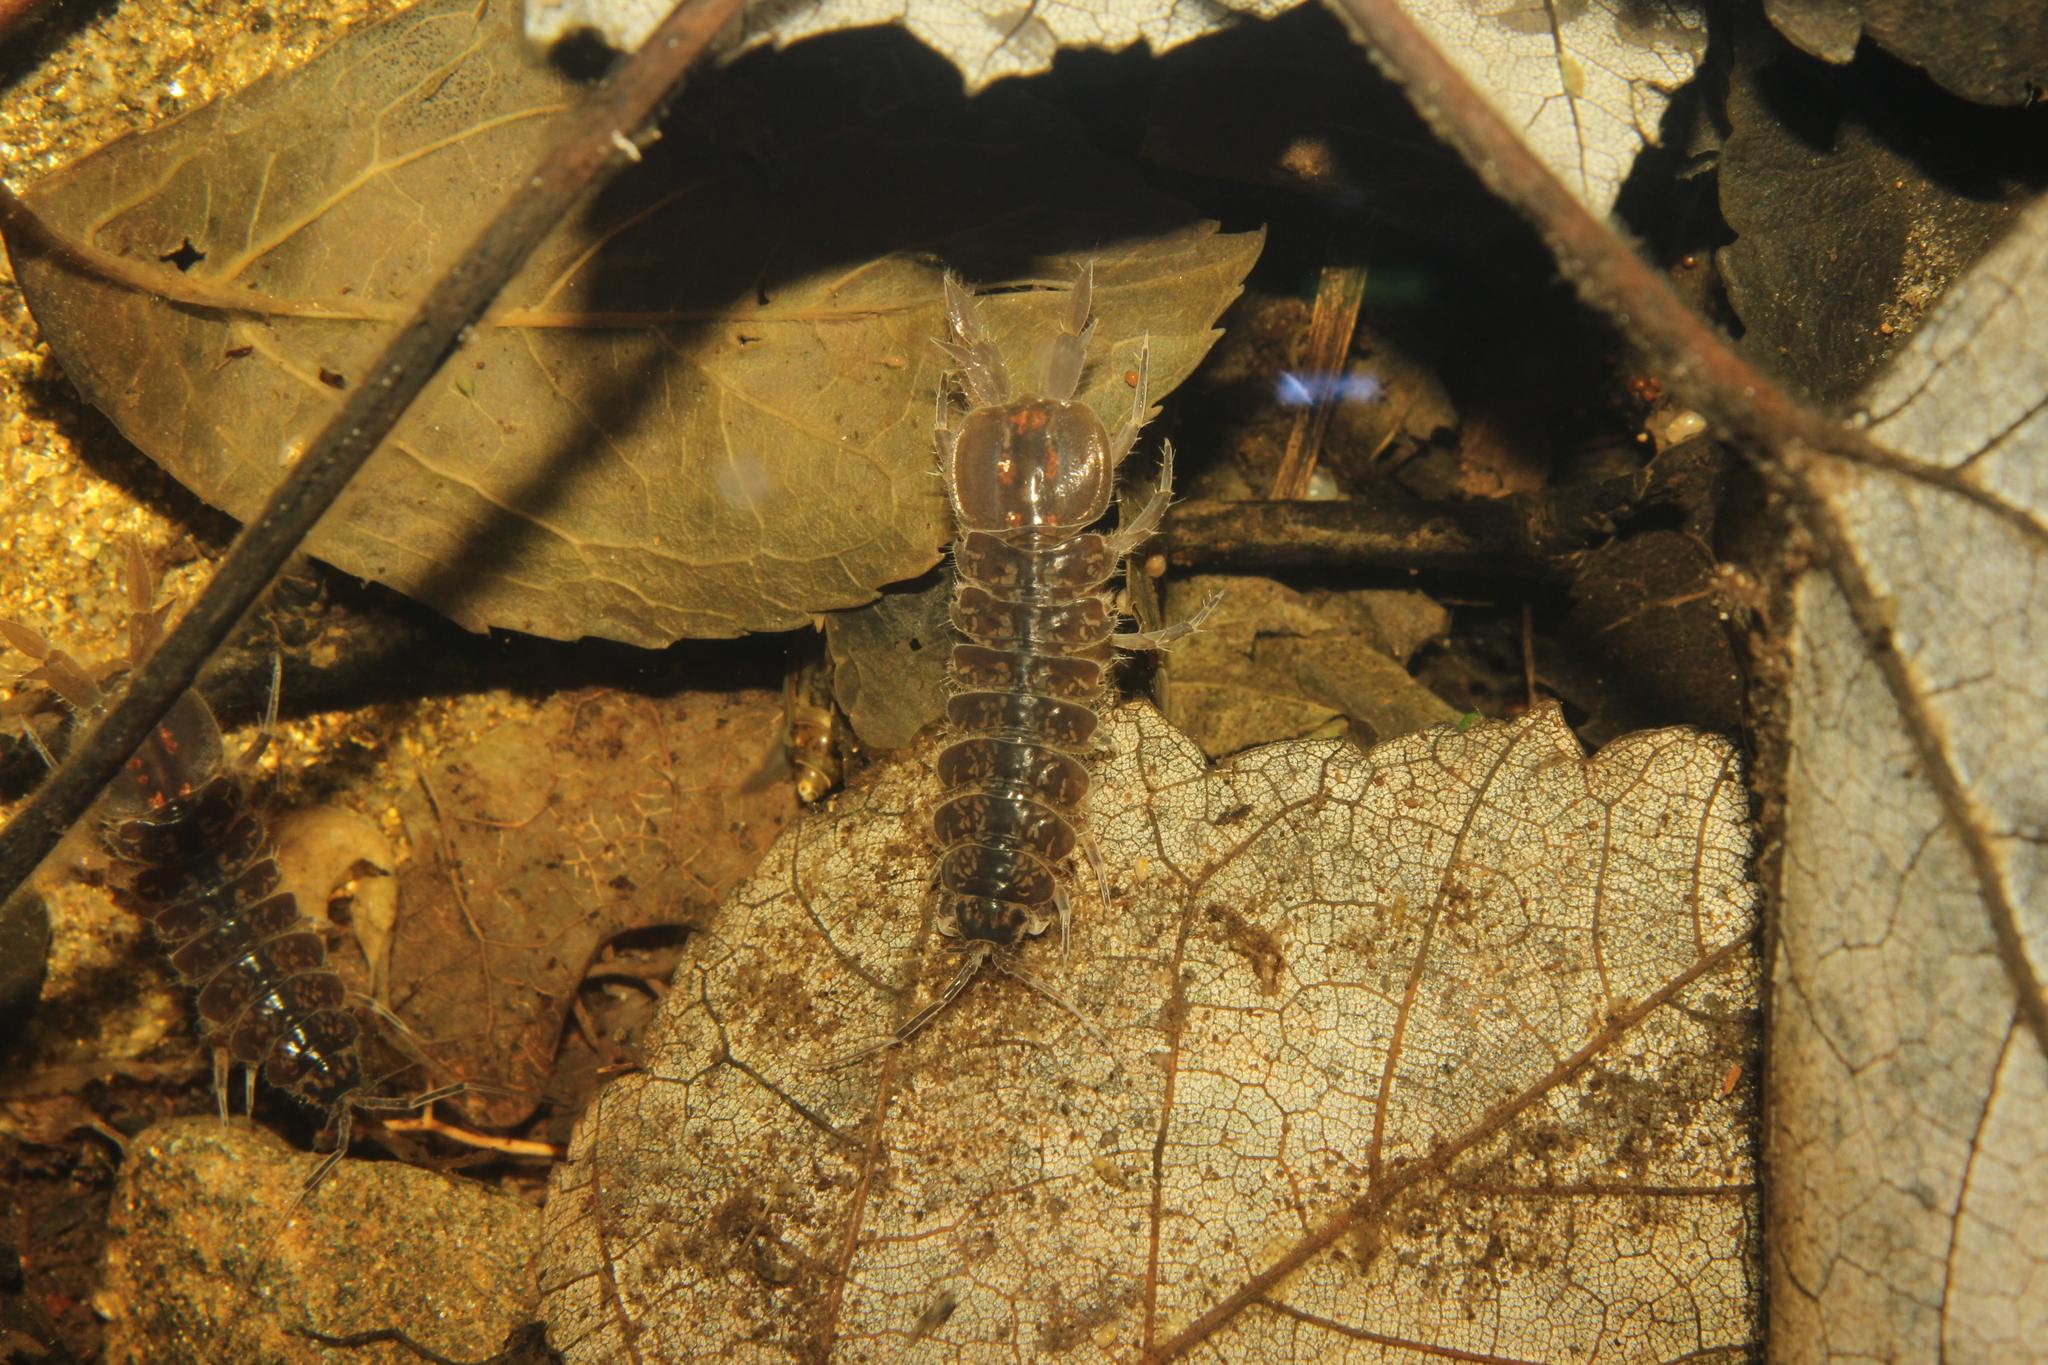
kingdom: Animalia
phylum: Arthropoda
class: Malacostraca
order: Isopoda
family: Asellidae
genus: Caecidotea
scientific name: Caecidotea
